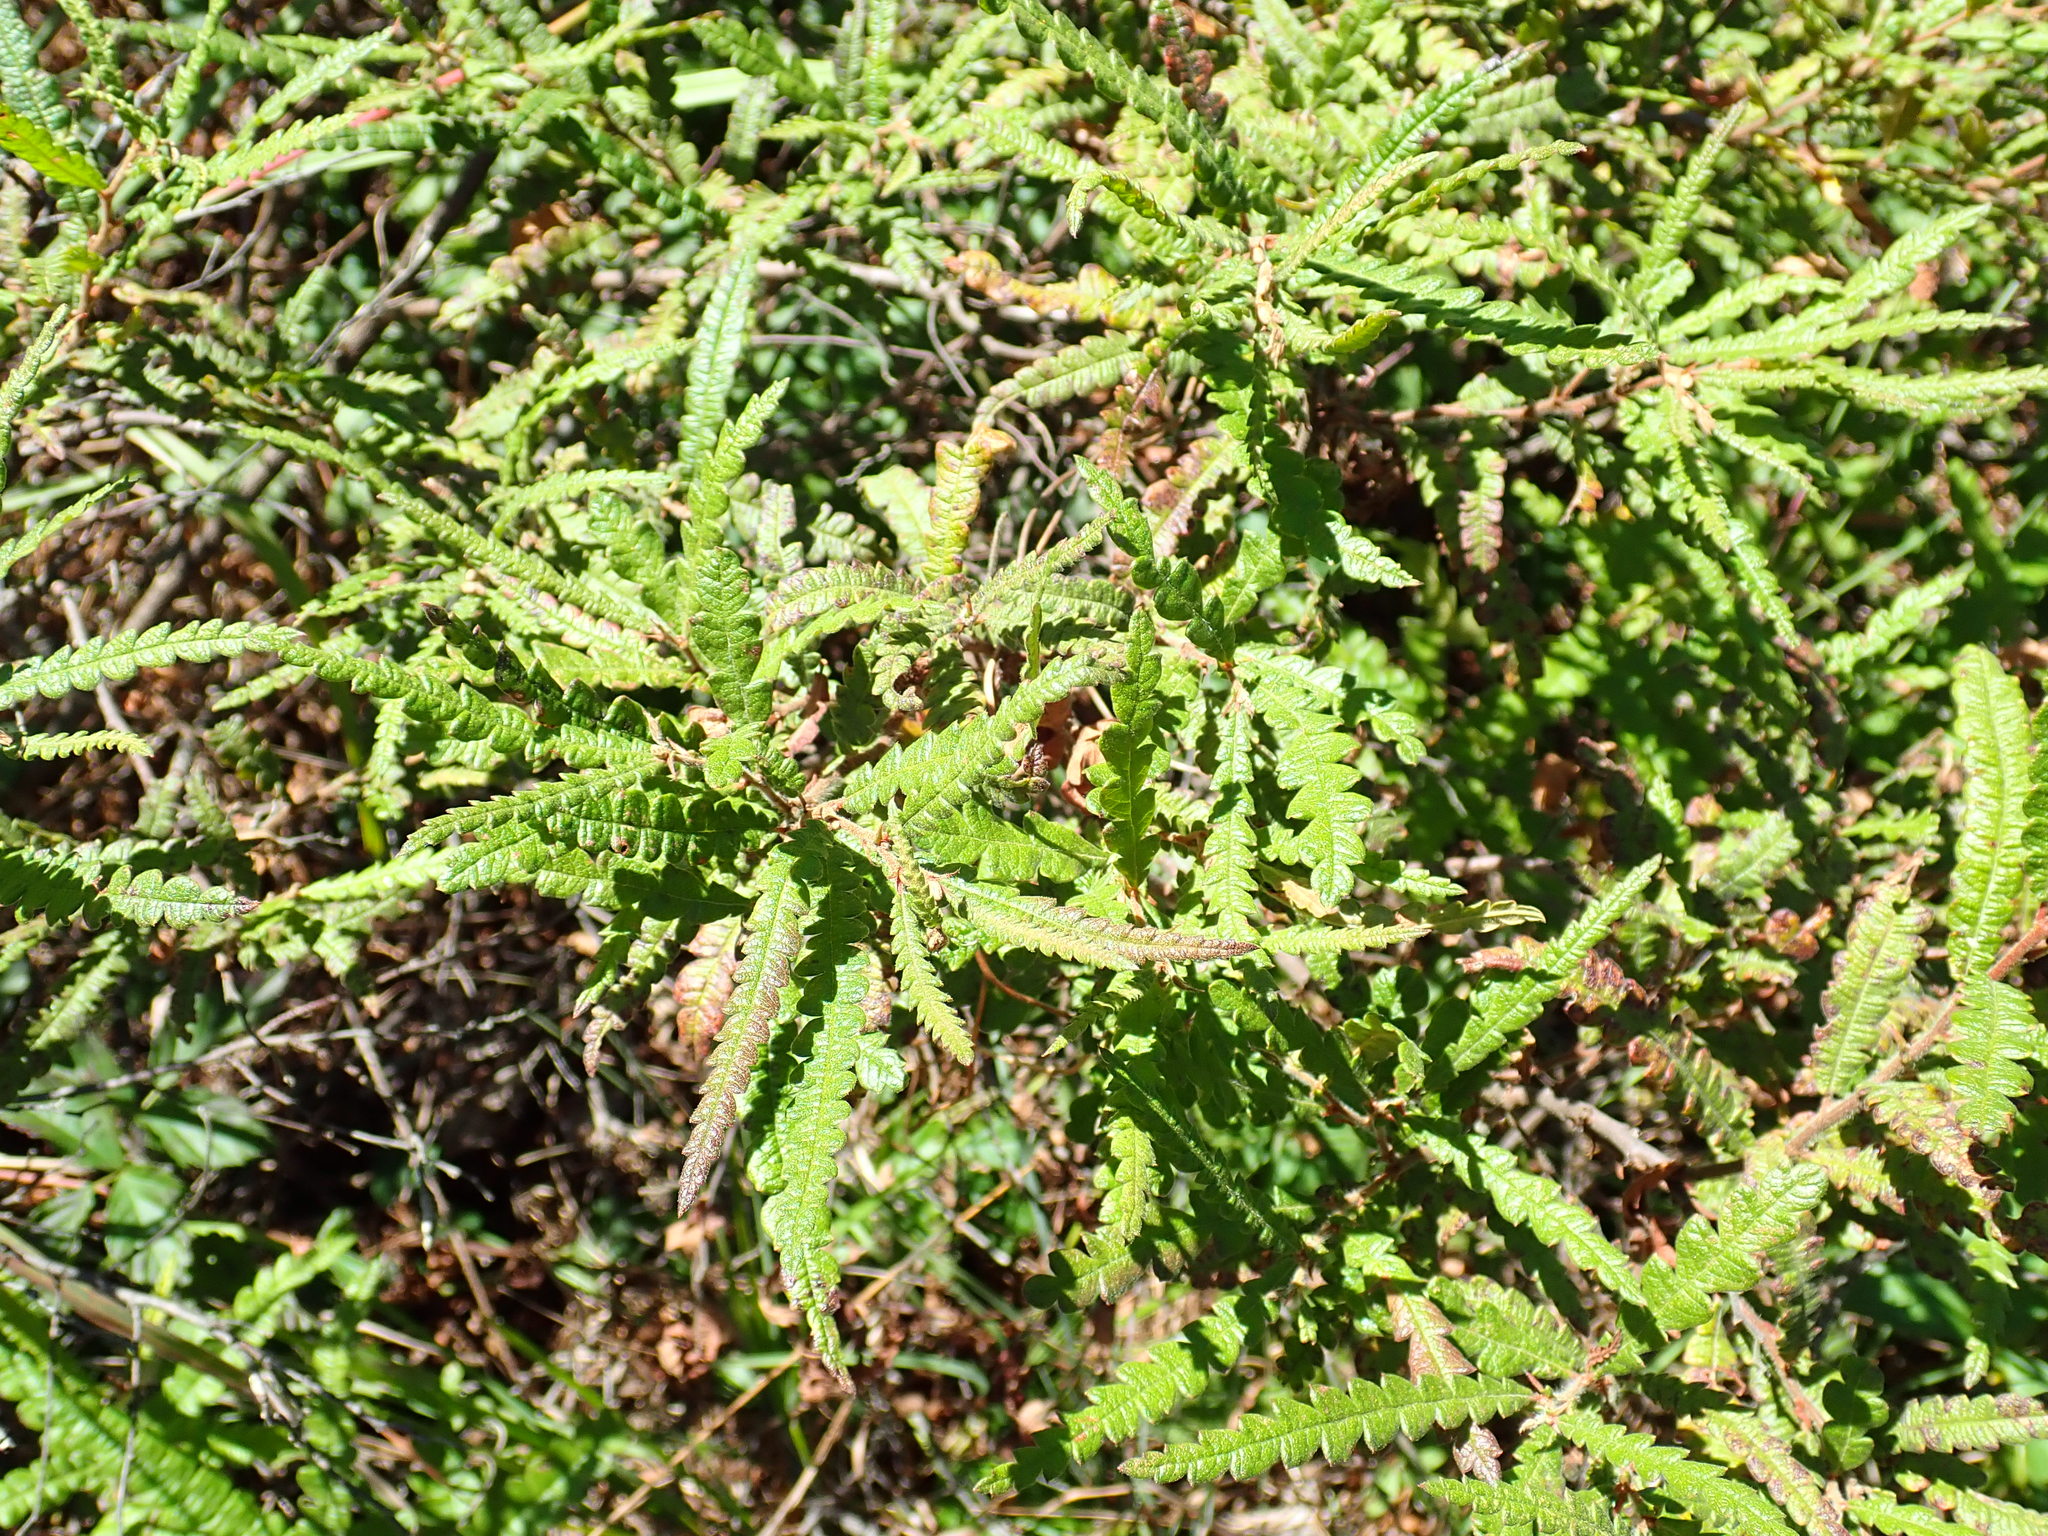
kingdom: Plantae
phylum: Tracheophyta
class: Magnoliopsida
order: Fagales
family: Myricaceae
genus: Comptonia
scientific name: Comptonia peregrina
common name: Sweet-fern
